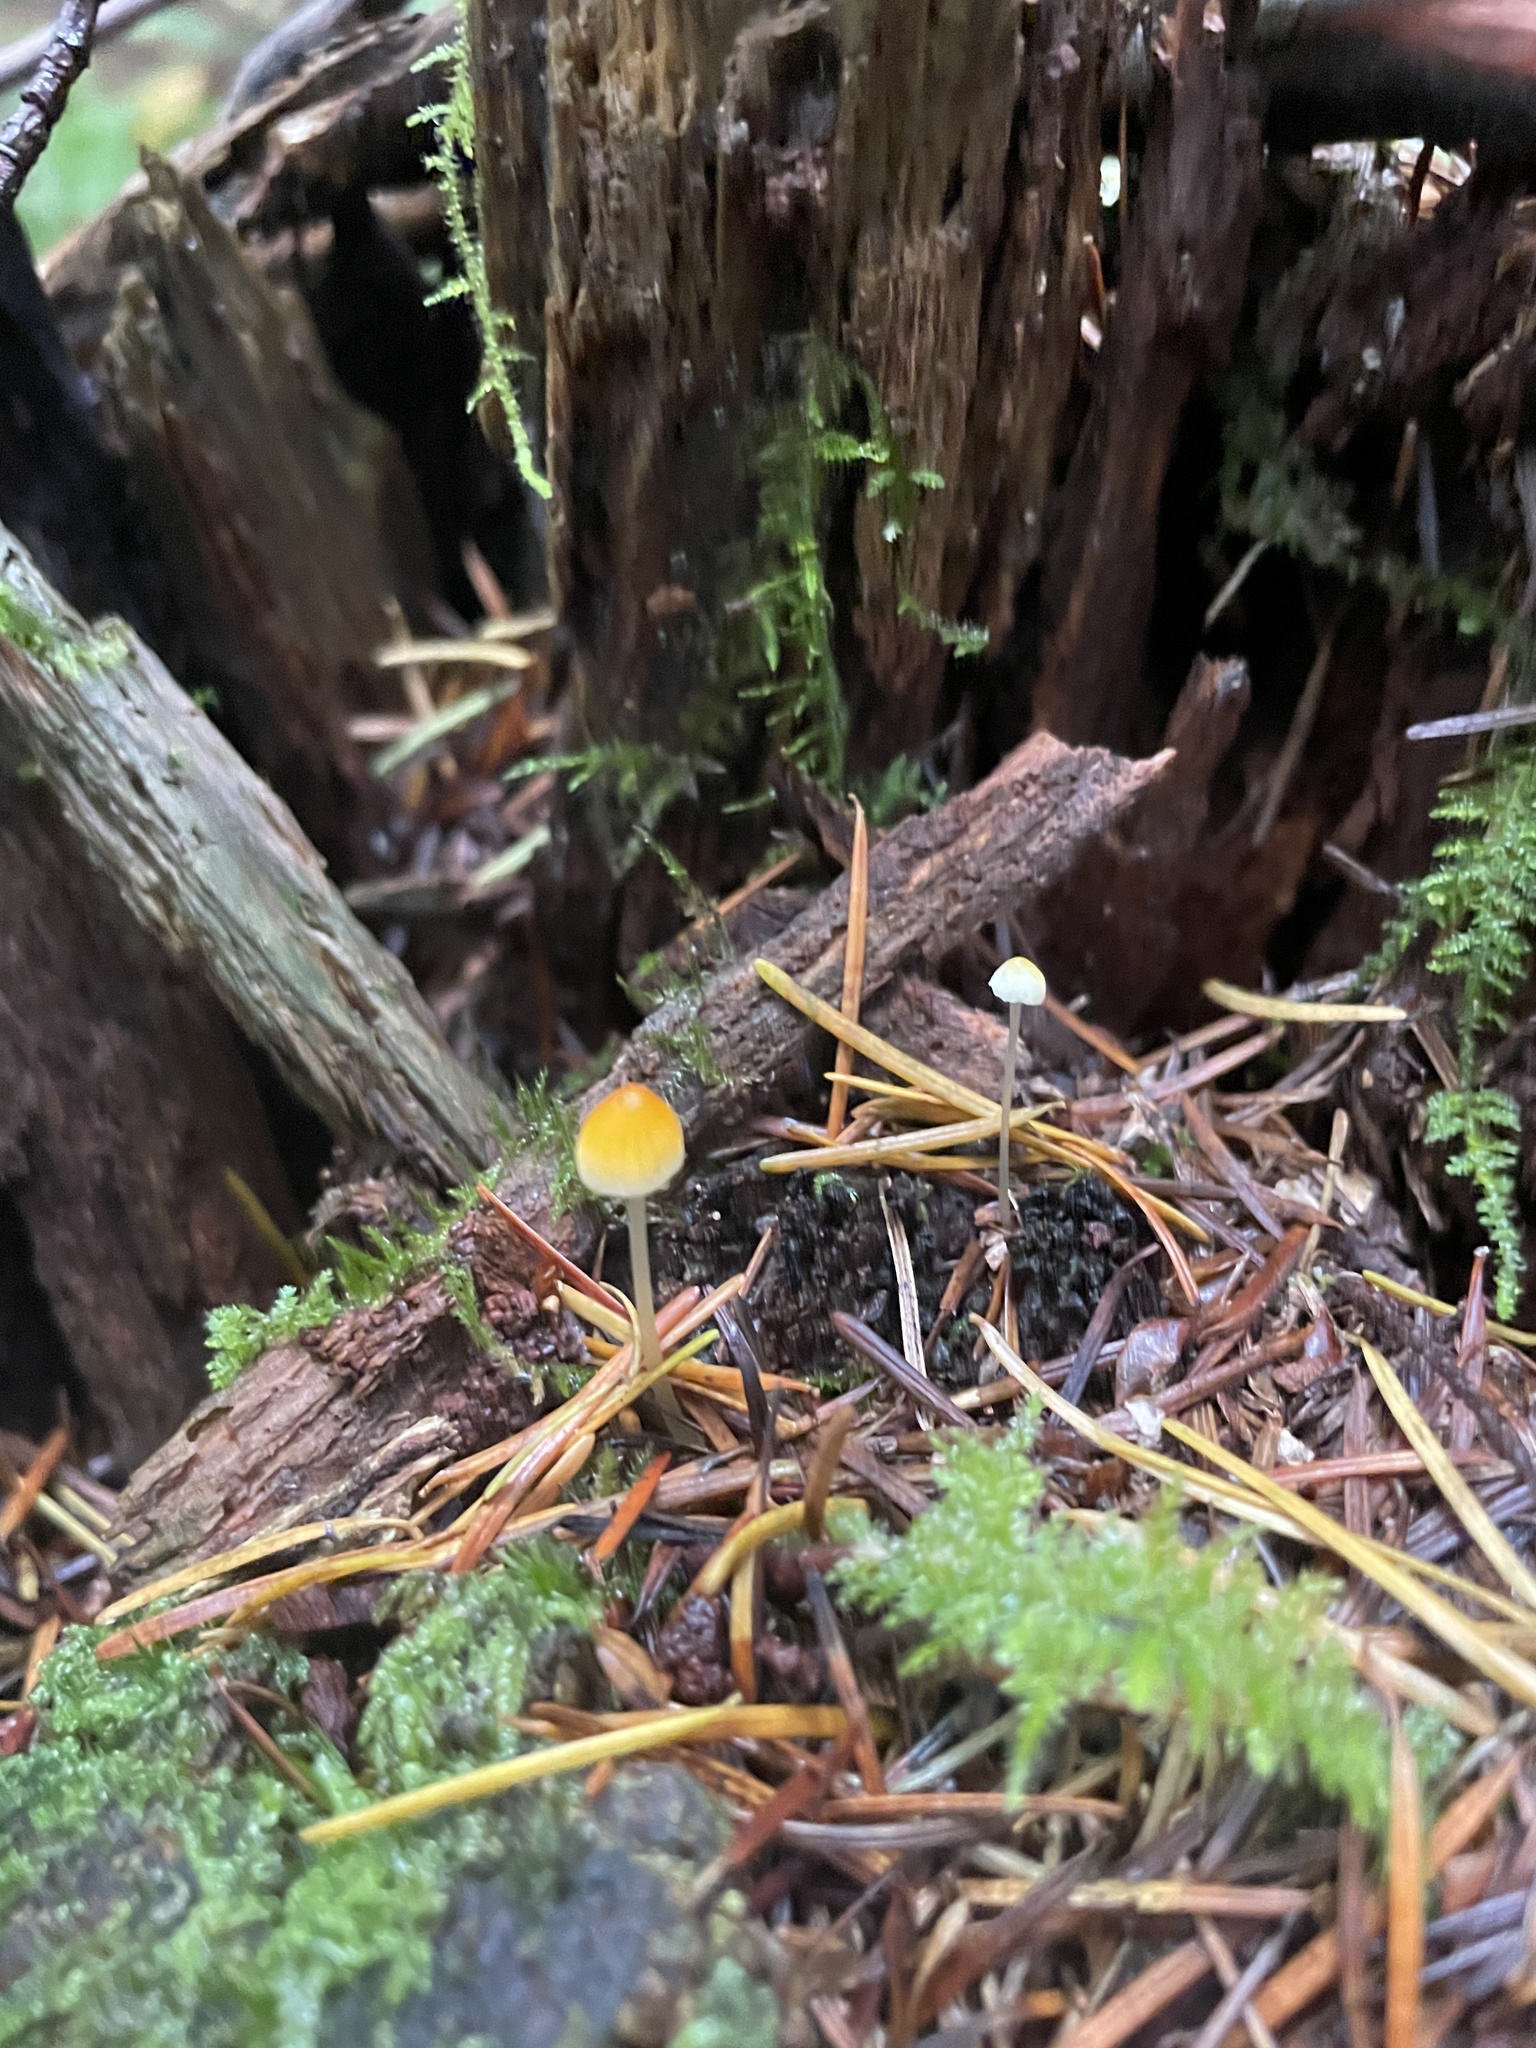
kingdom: Fungi
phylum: Basidiomycota
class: Agaricomycetes
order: Agaricales
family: Mycenaceae
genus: Atheniella
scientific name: Atheniella aurantiidisca
